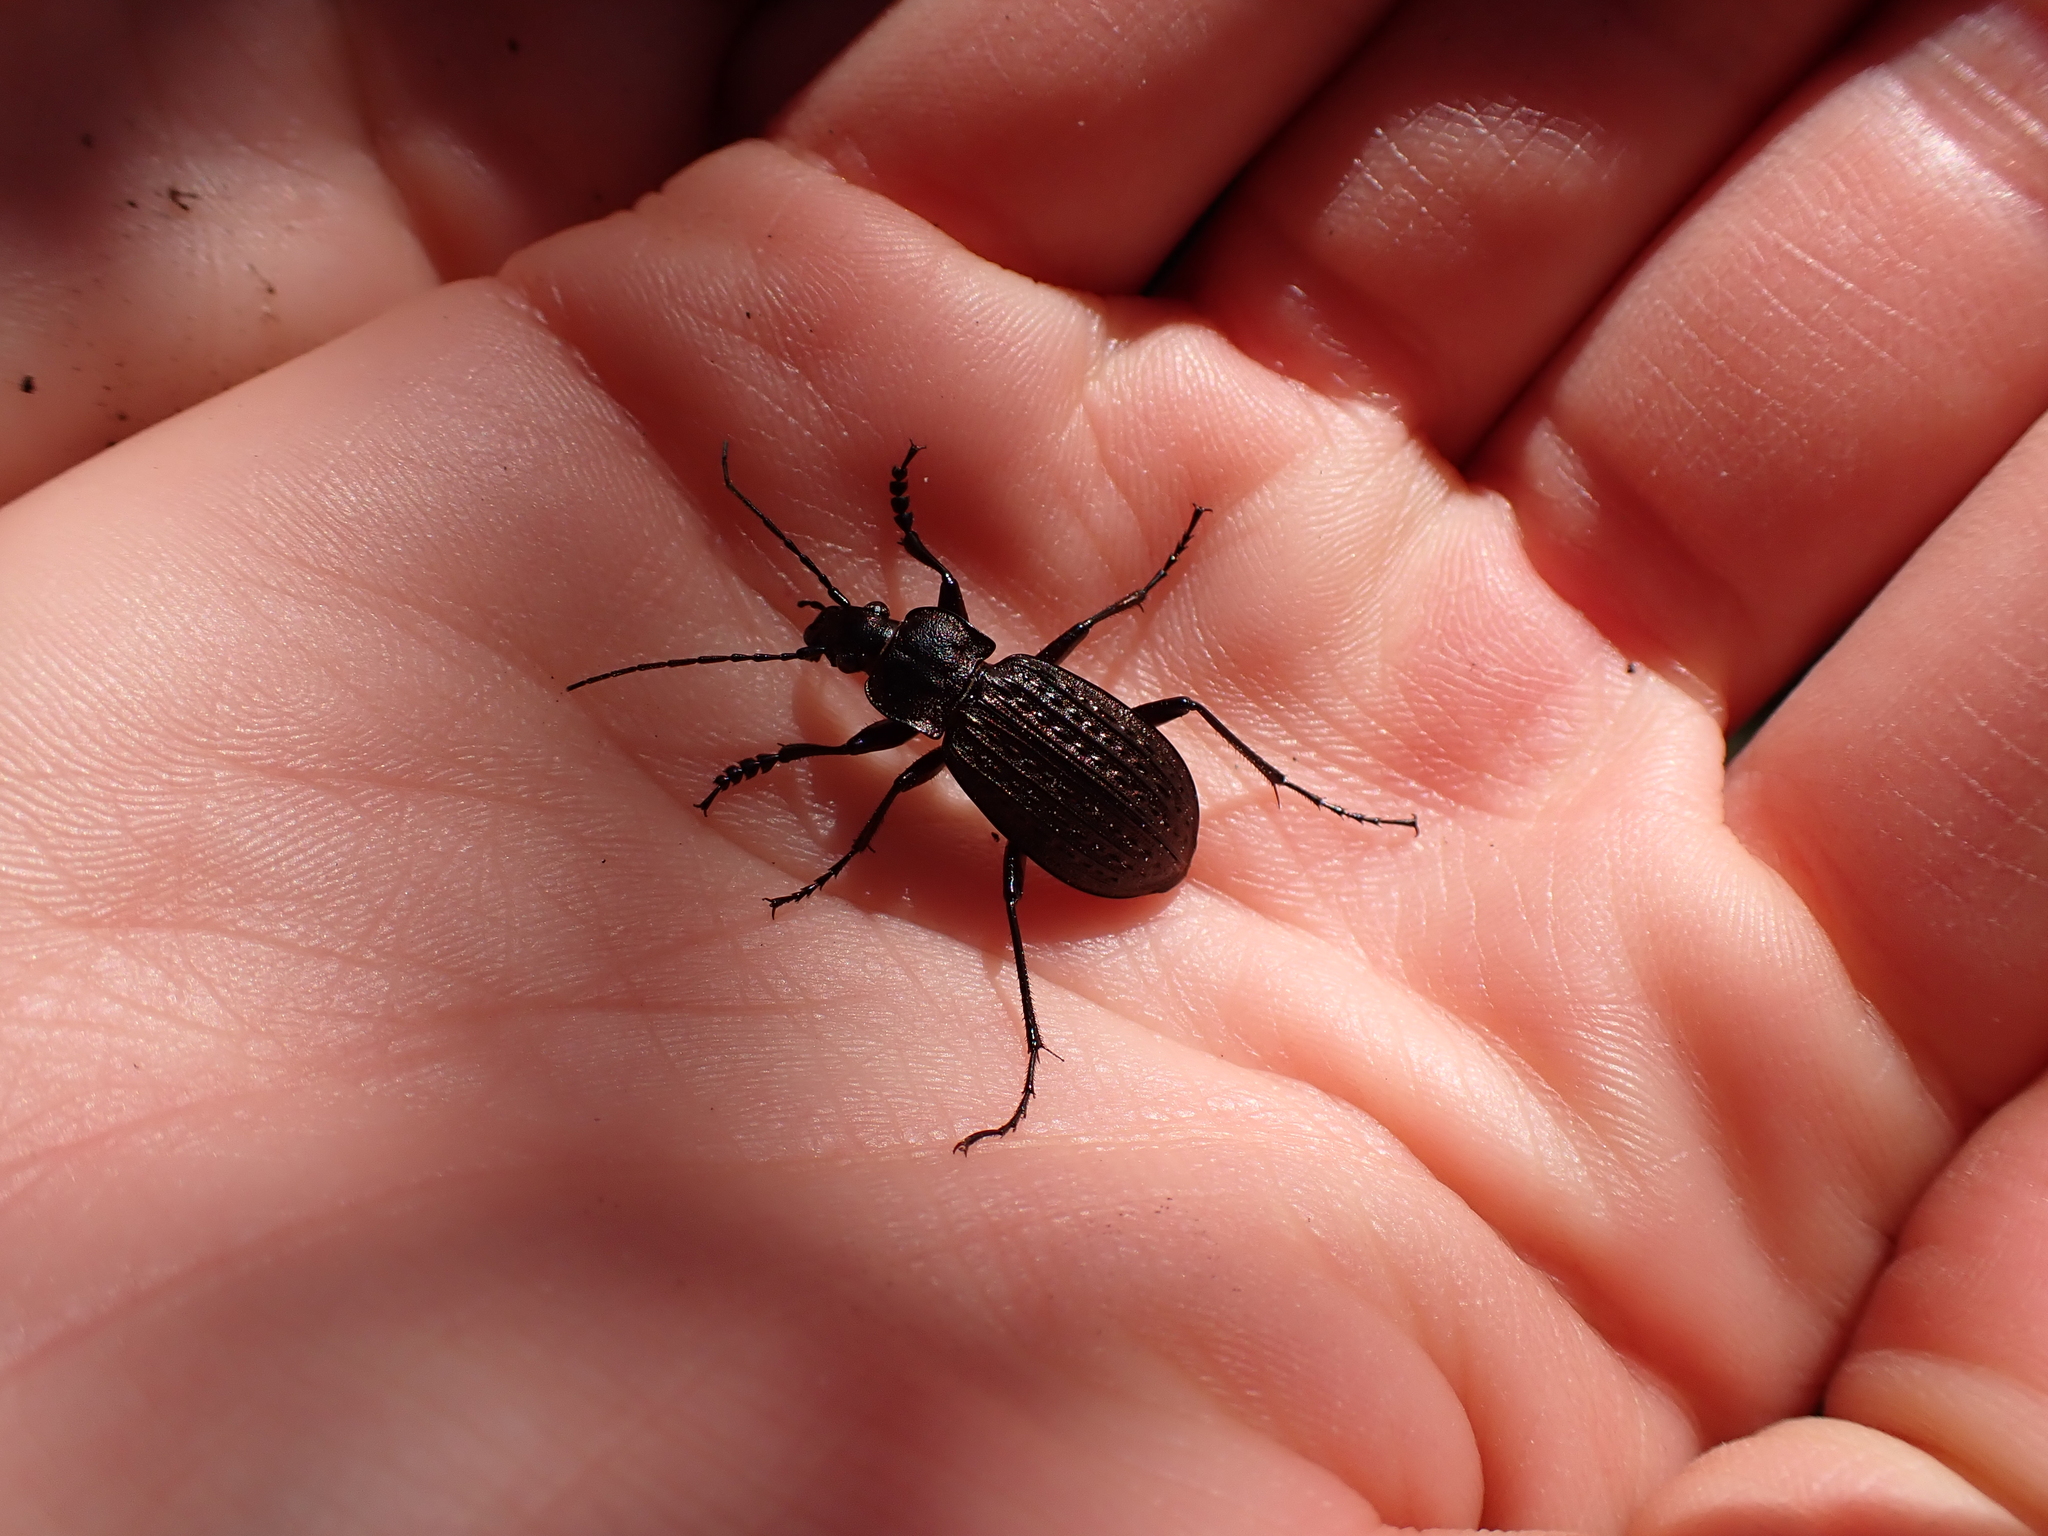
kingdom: Animalia
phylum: Arthropoda
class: Insecta
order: Coleoptera
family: Carabidae
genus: Carabus
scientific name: Carabus granulatus
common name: Granulate ground beetle
